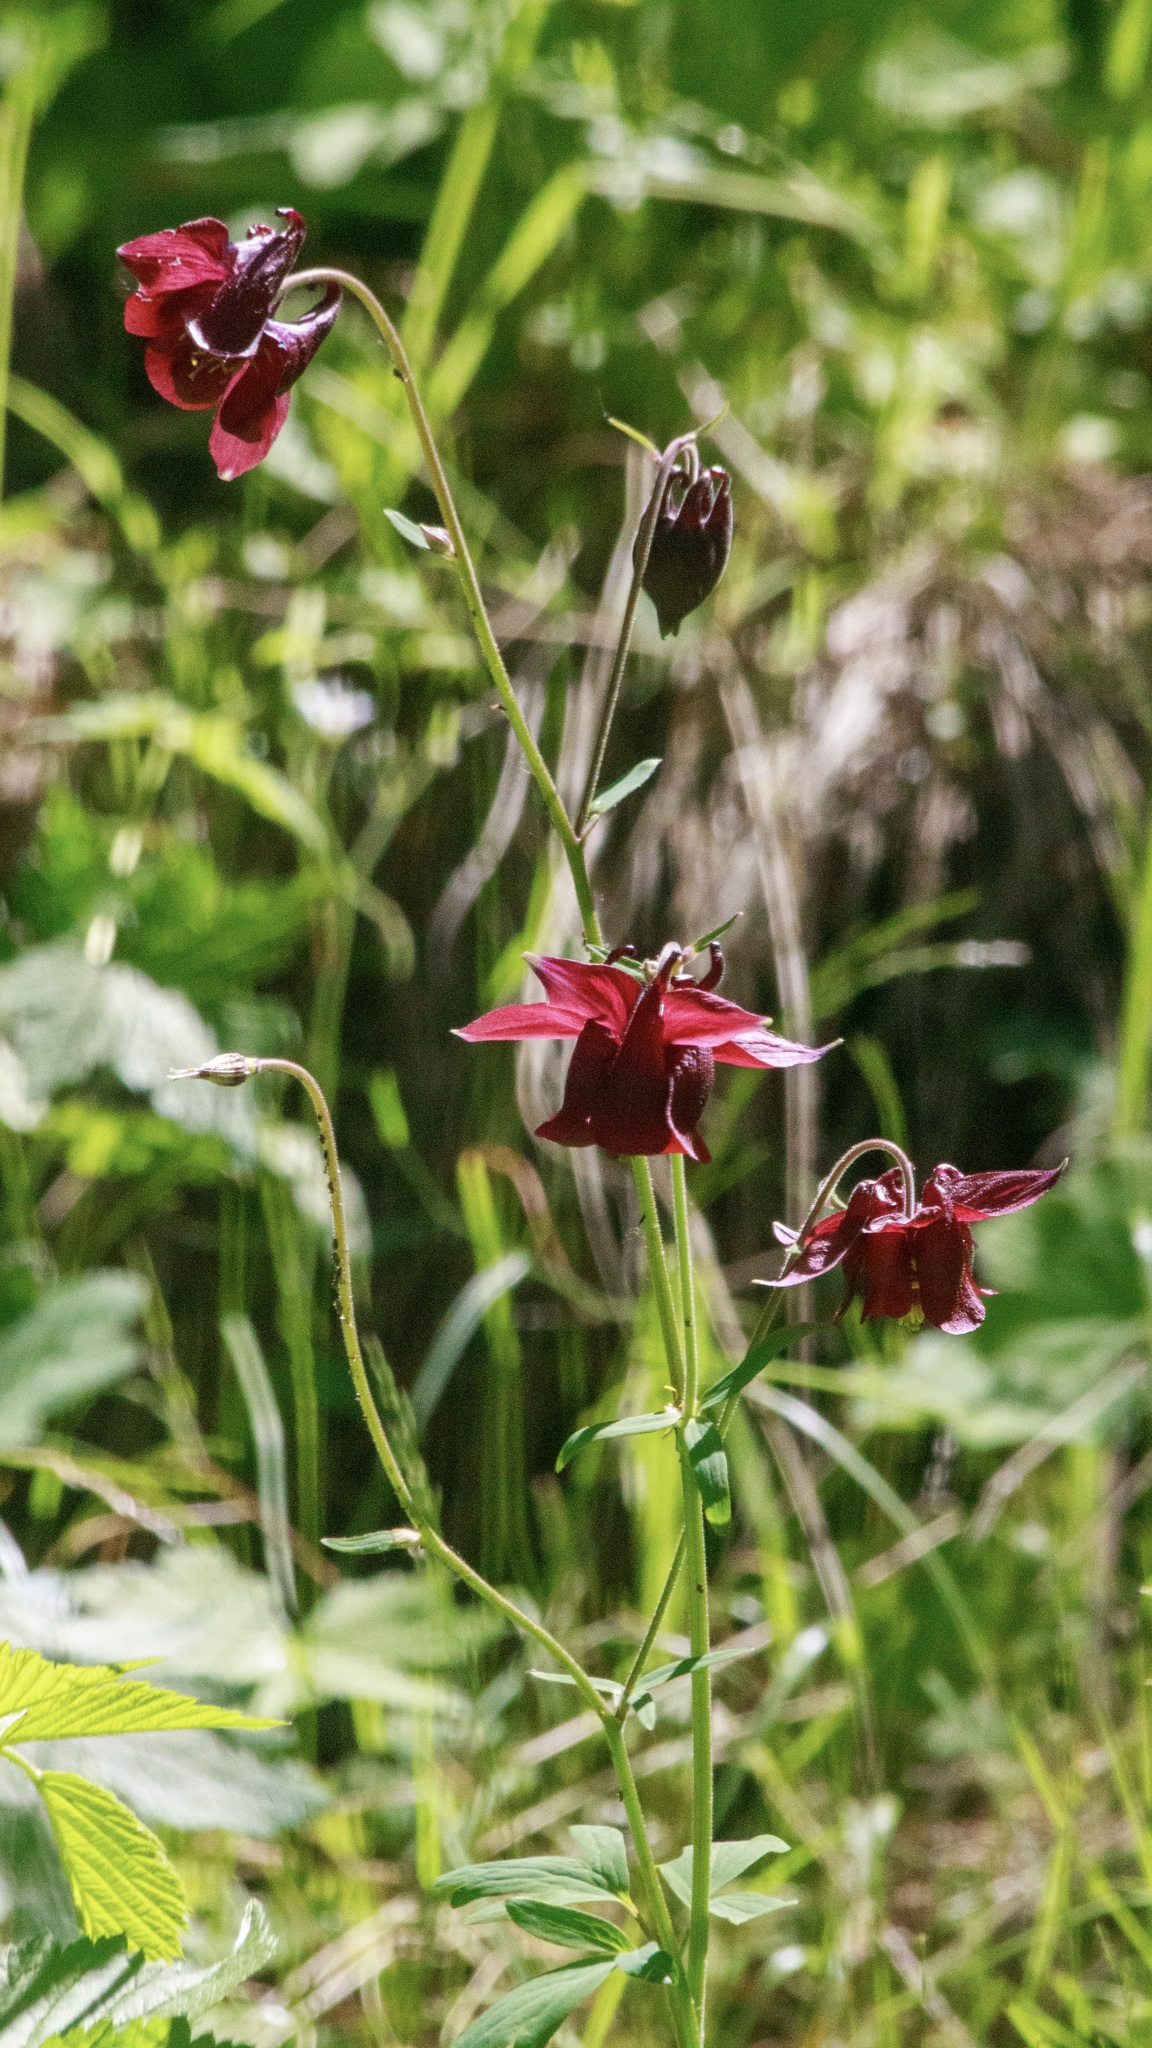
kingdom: Plantae
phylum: Tracheophyta
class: Magnoliopsida
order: Ranunculales
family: Ranunculaceae
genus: Aquilegia
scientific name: Aquilegia atrovinosa
